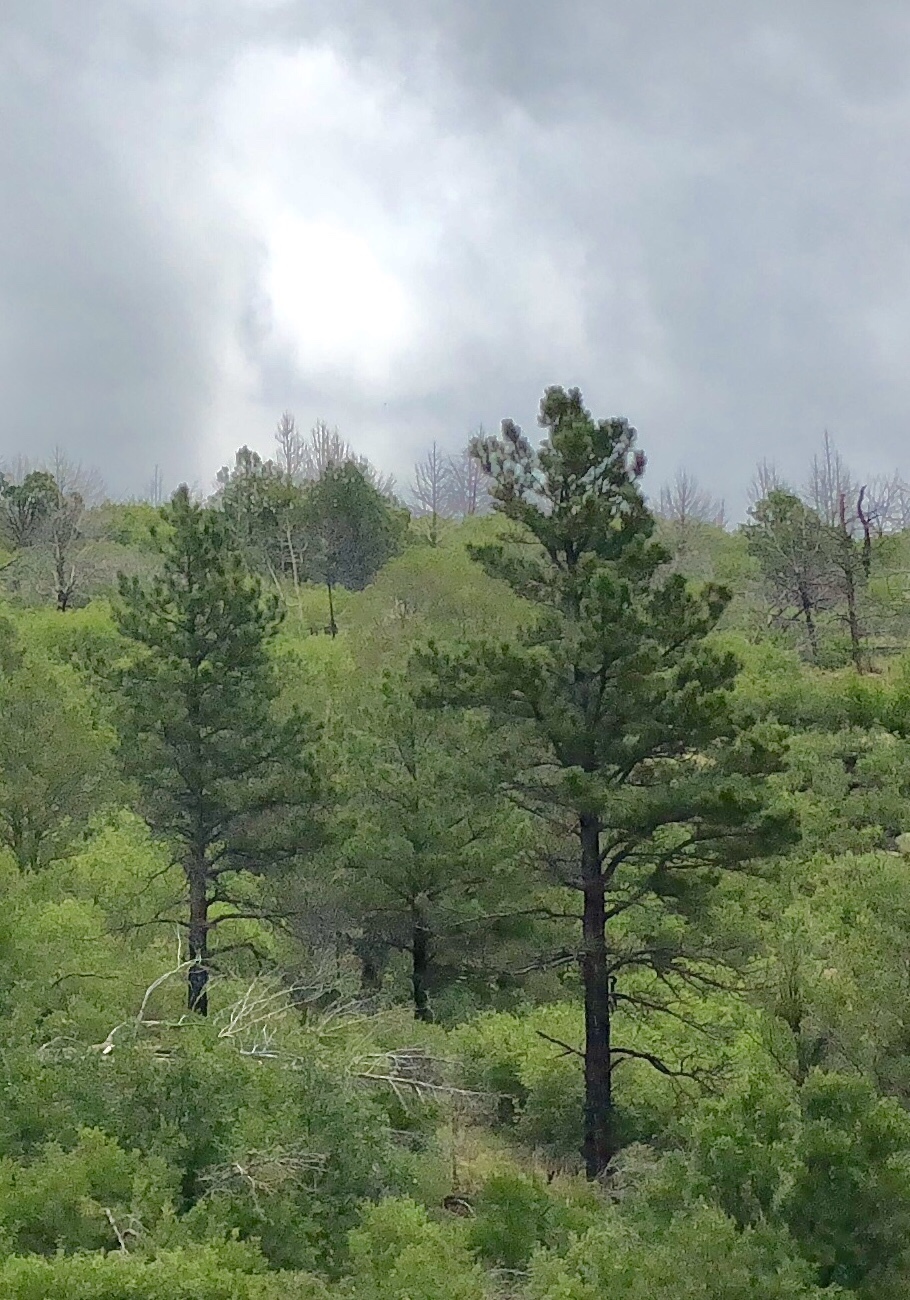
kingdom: Plantae
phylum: Tracheophyta
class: Pinopsida
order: Pinales
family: Pinaceae
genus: Pinus
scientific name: Pinus ponderosa
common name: Western yellow-pine
